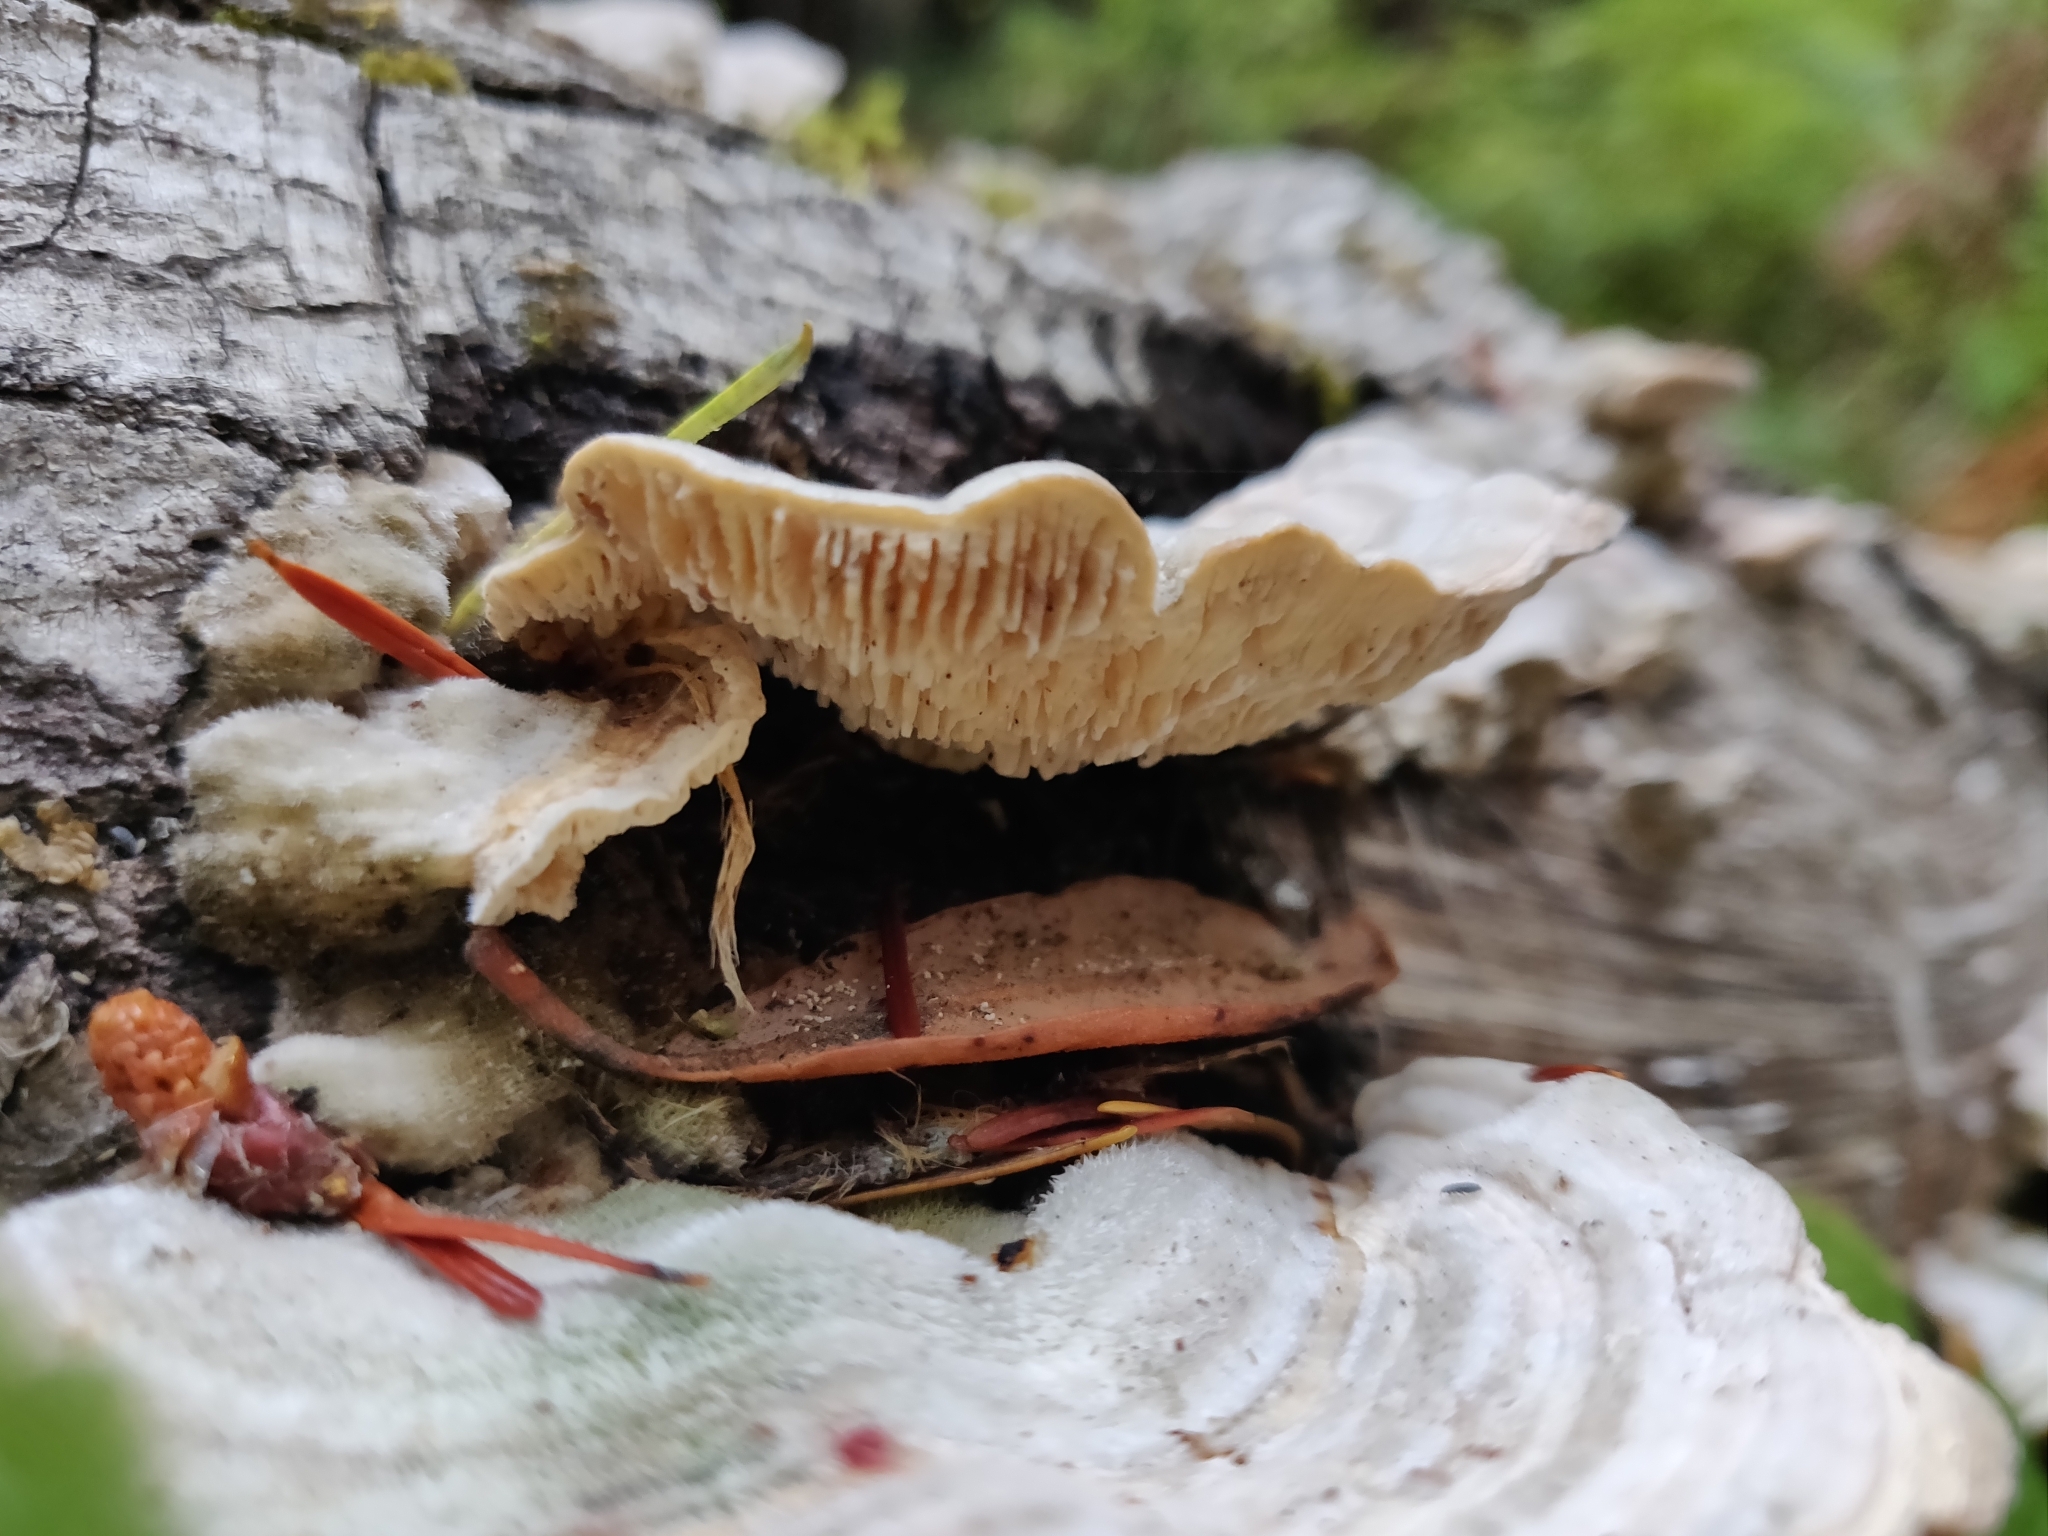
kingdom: Fungi
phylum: Basidiomycota
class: Agaricomycetes
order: Polyporales
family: Polyporaceae
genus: Lenzites
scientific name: Lenzites betulinus
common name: Birch mazegill
